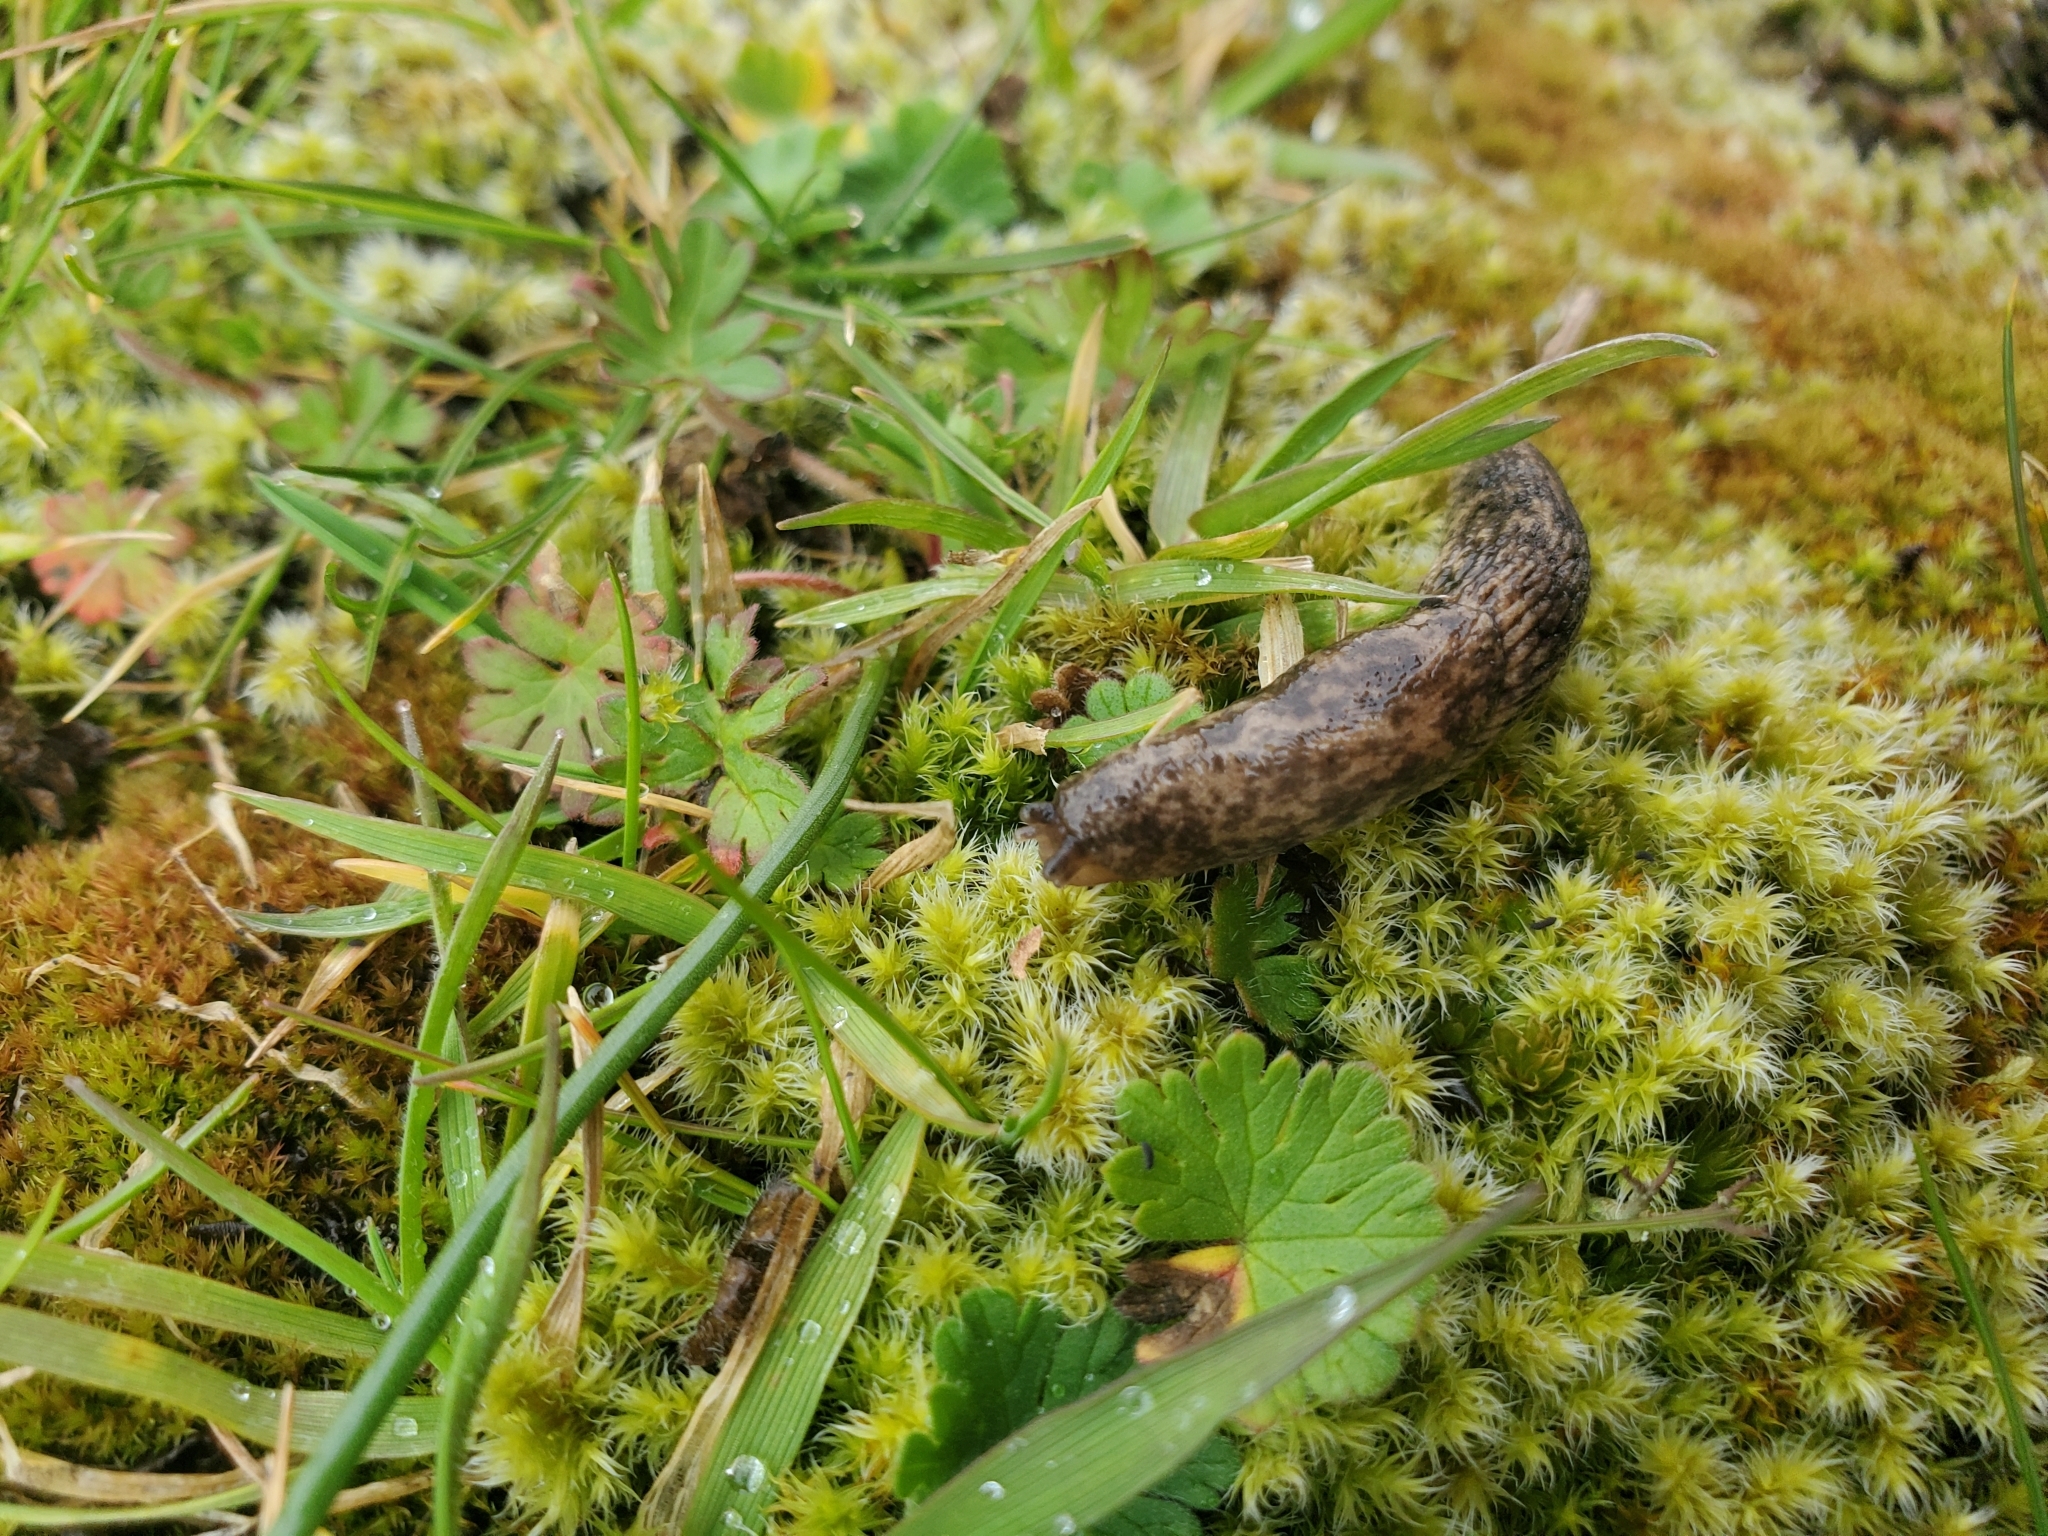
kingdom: Animalia
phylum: Mollusca
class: Gastropoda
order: Stylommatophora
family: Agriolimacidae
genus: Deroceras
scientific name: Deroceras reticulatum
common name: Gray field slug
